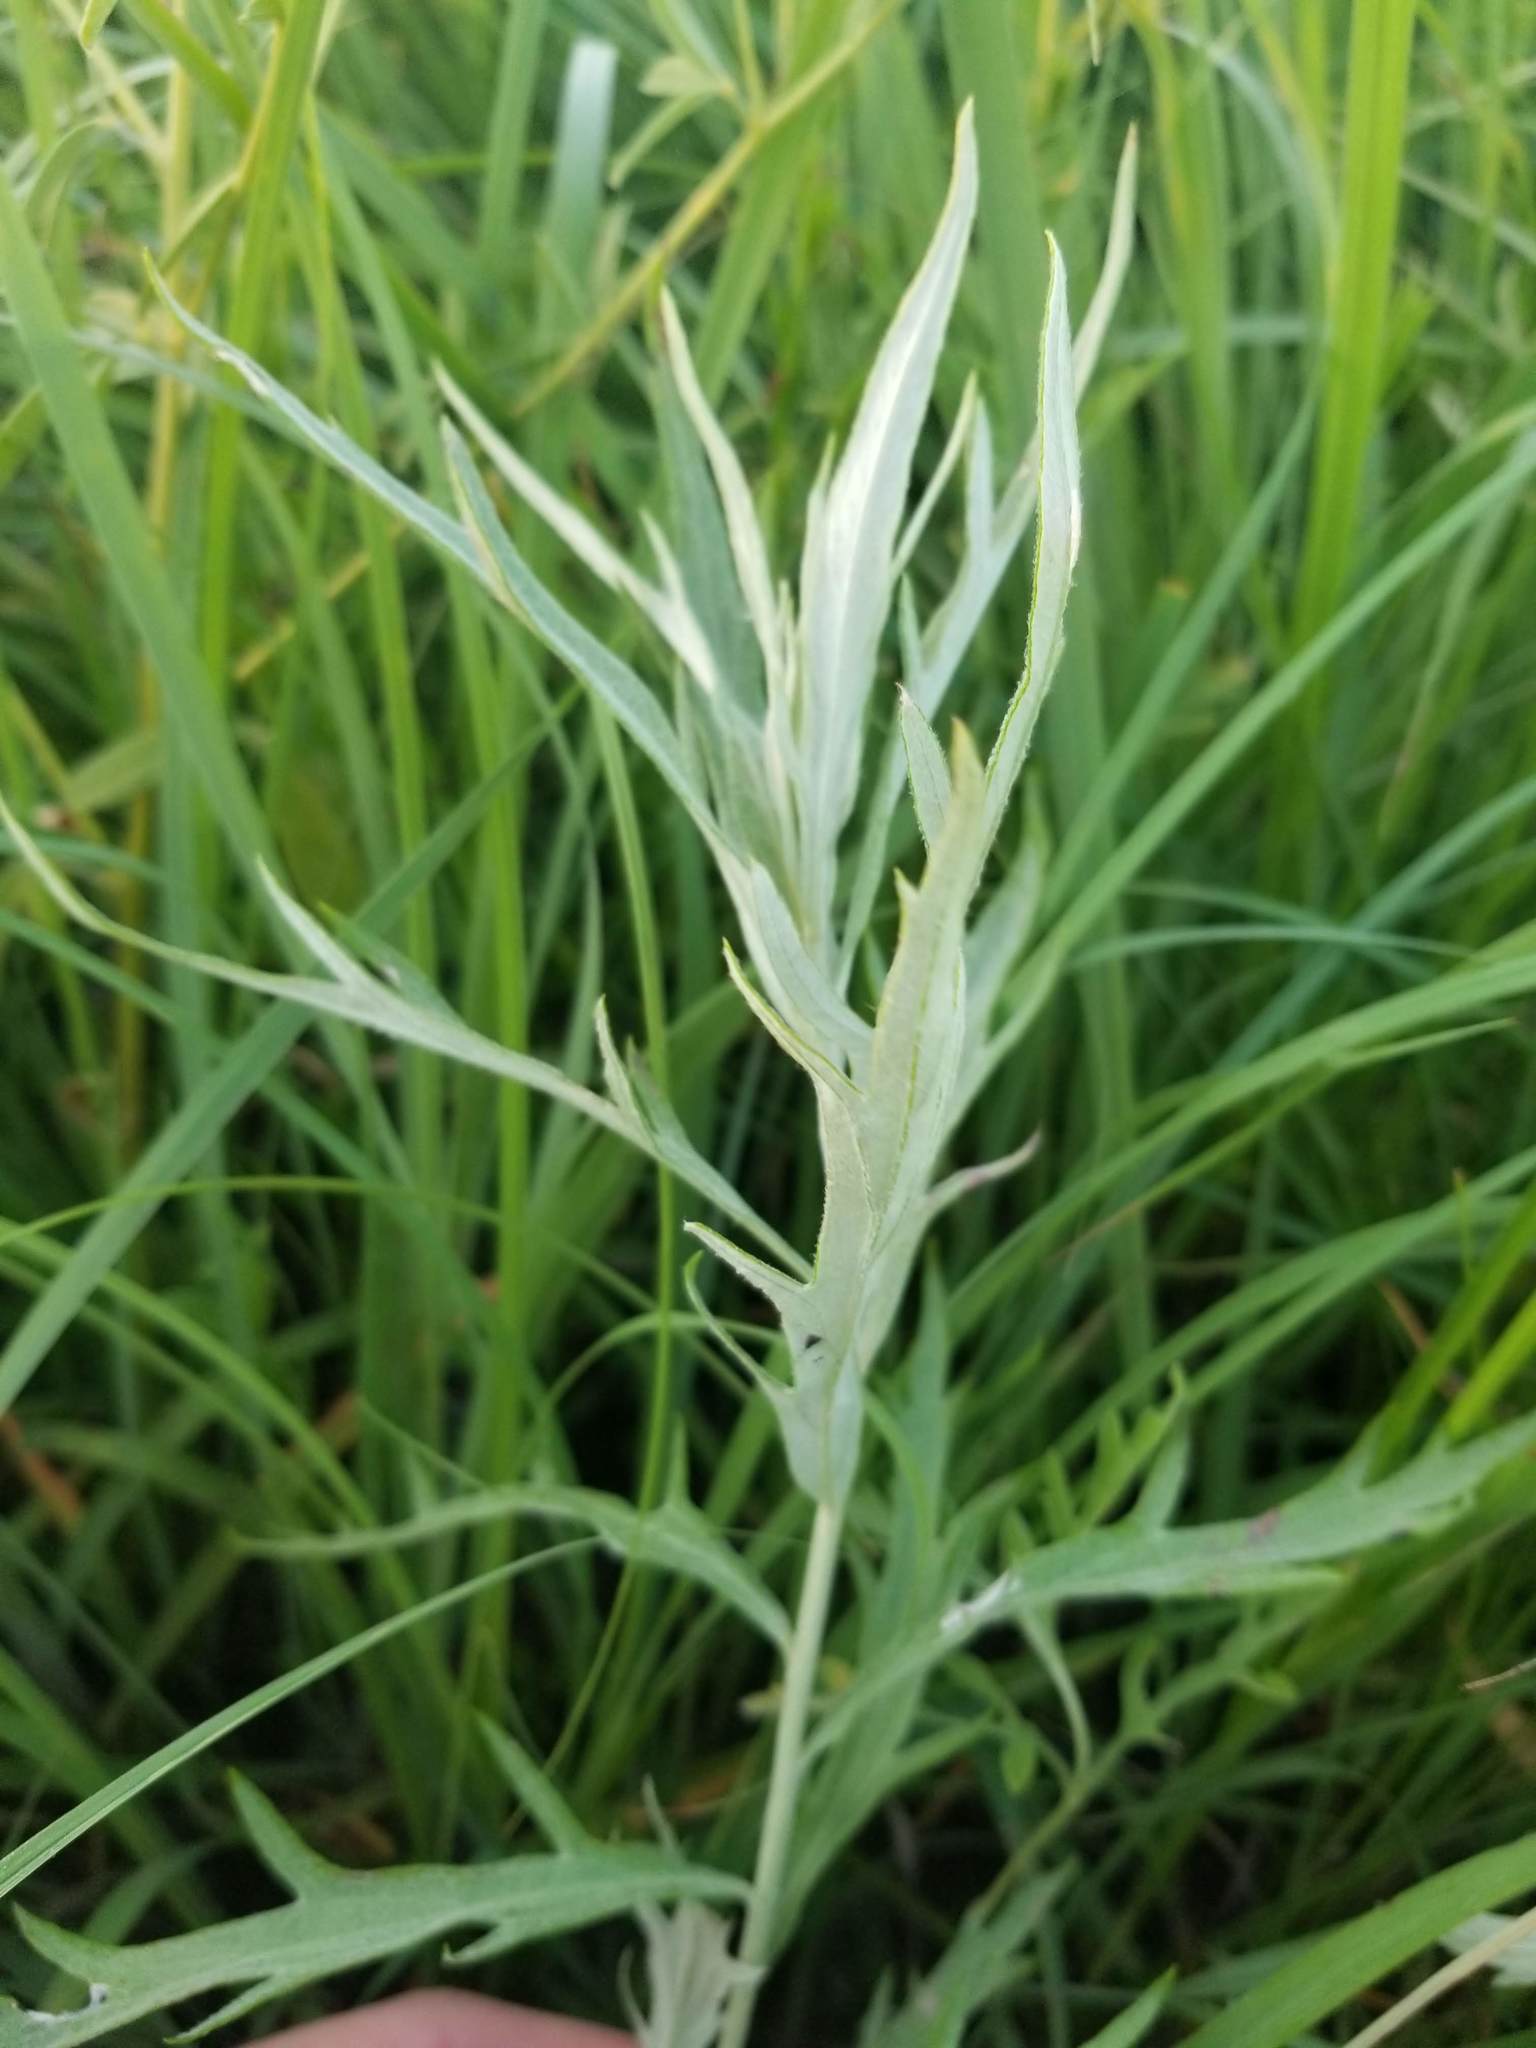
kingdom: Plantae
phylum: Tracheophyta
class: Magnoliopsida
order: Asterales
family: Asteraceae
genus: Artemisia
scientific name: Artemisia ludoviciana
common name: Western mugwort
